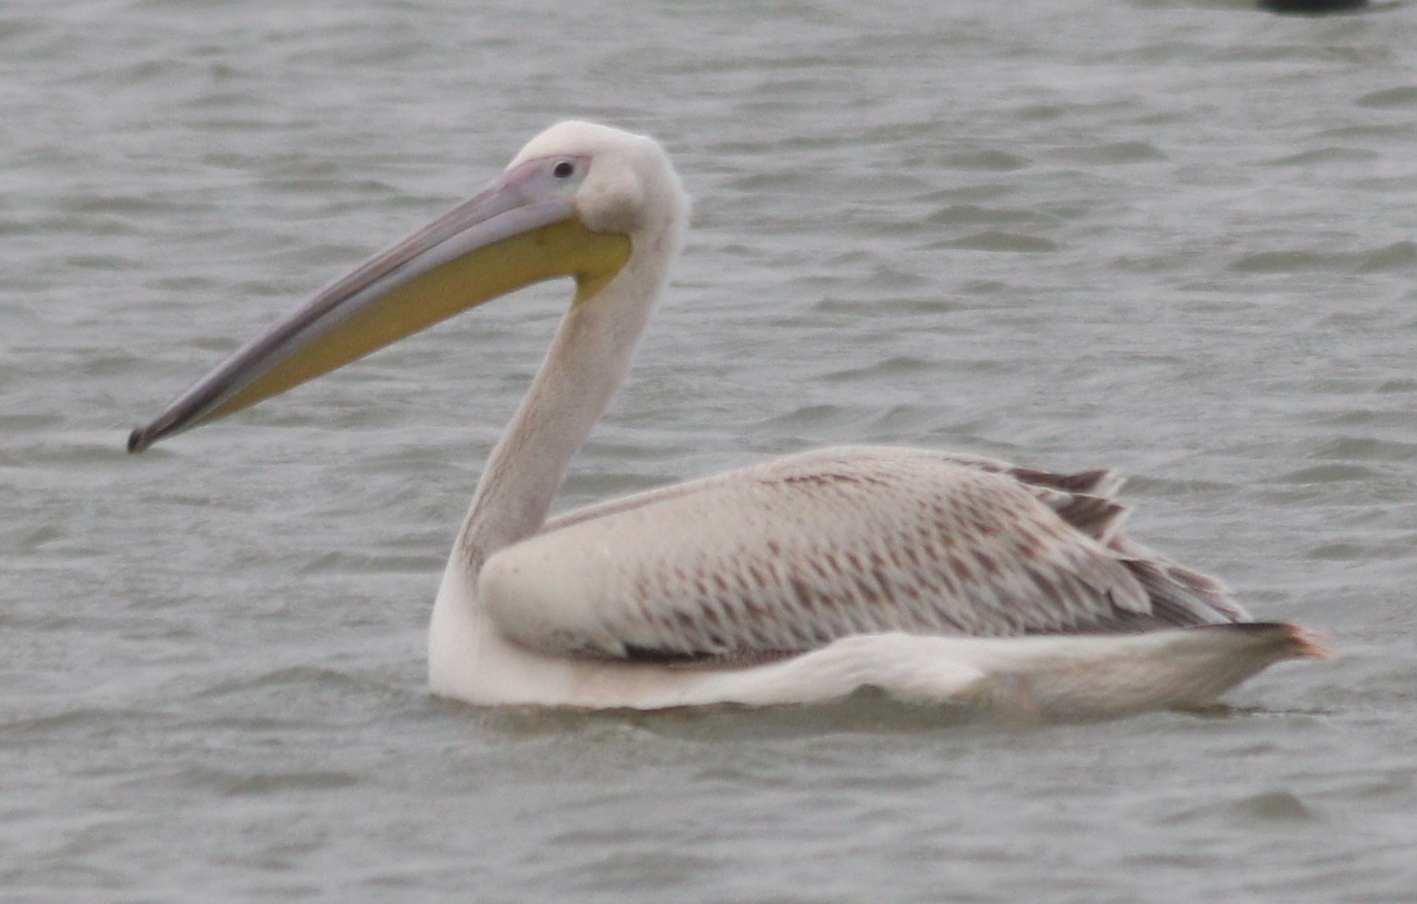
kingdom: Animalia
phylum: Chordata
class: Aves
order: Pelecaniformes
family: Pelecanidae
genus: Pelecanus
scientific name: Pelecanus onocrotalus
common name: Great white pelican
